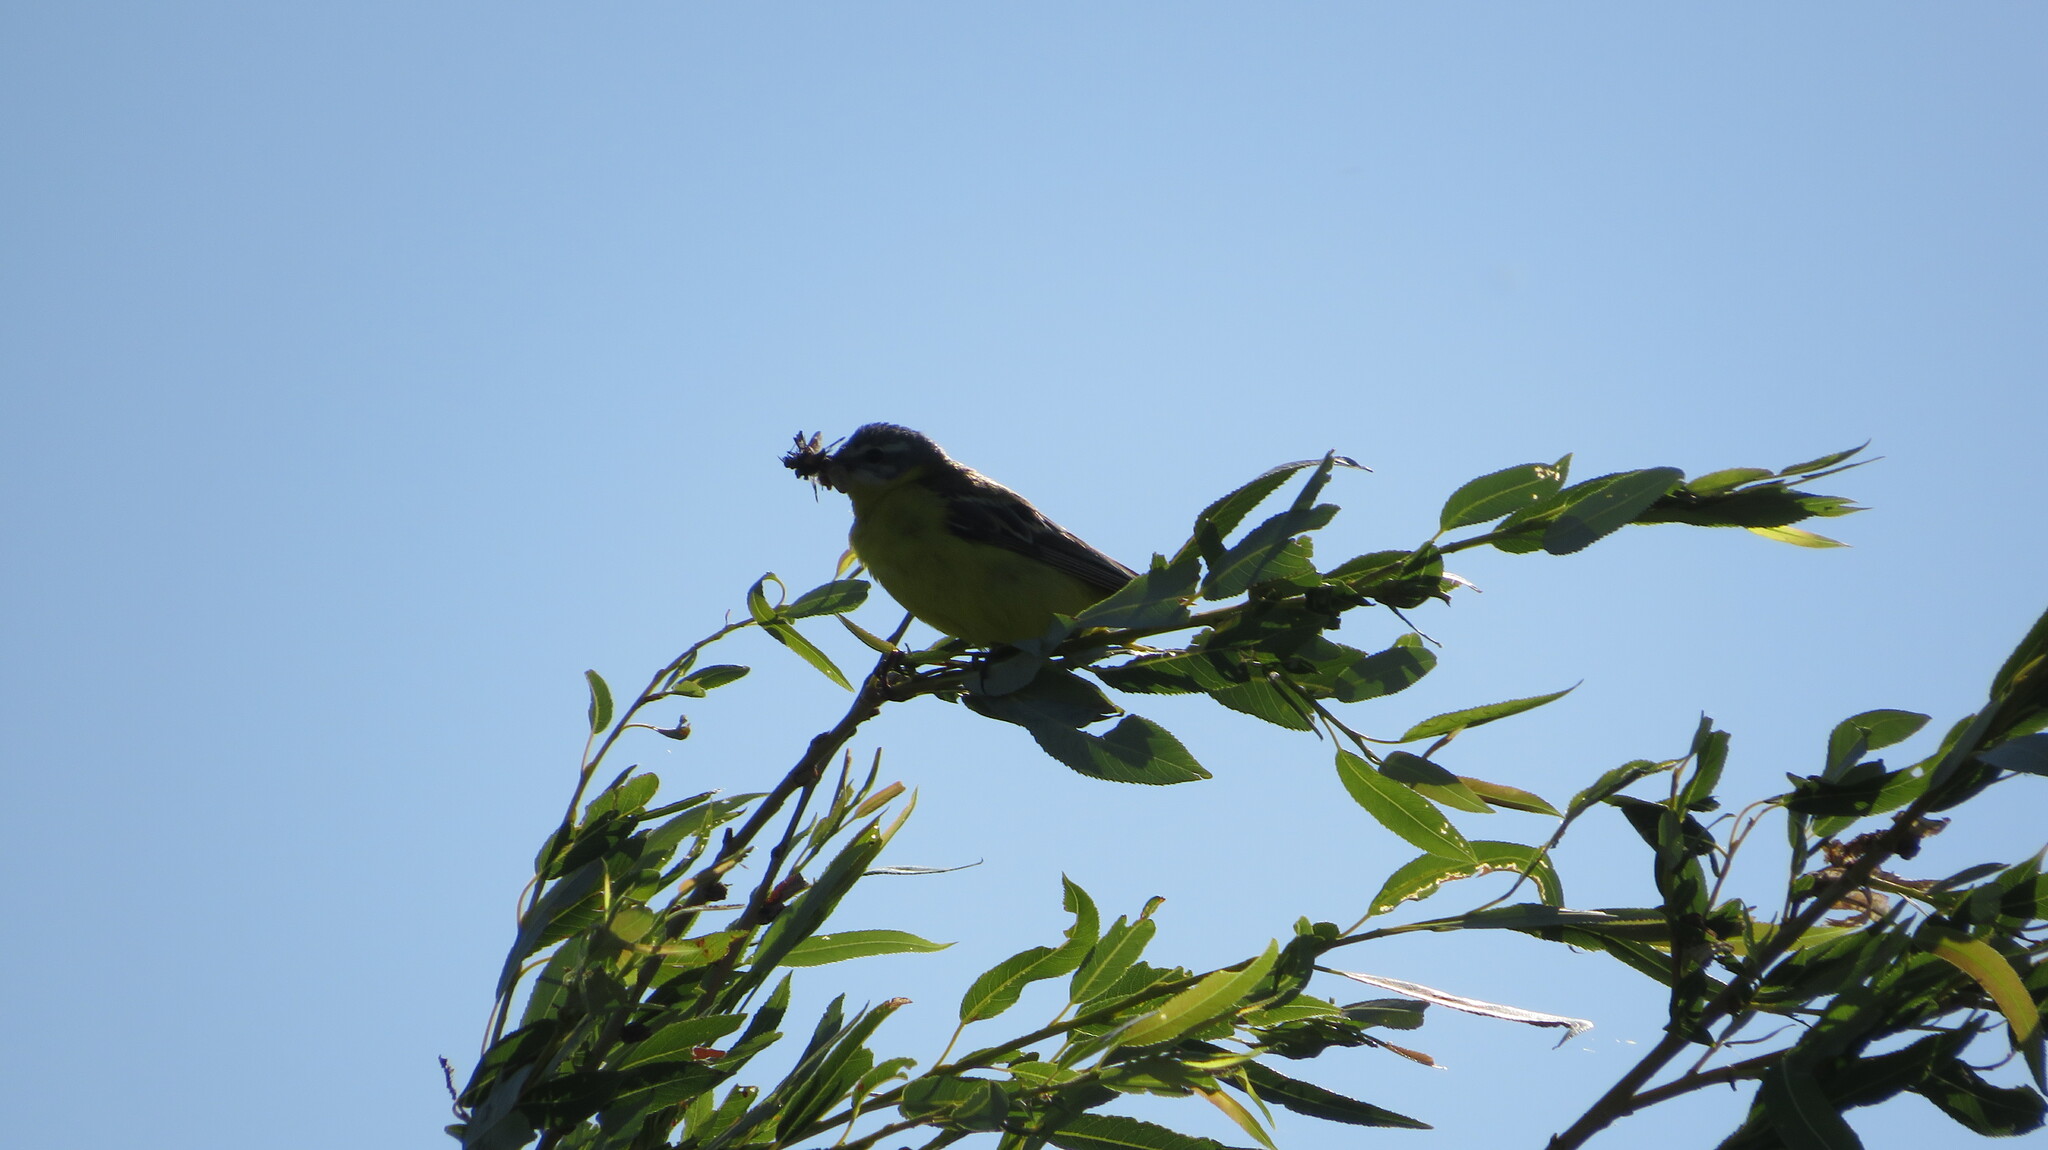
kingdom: Animalia
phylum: Chordata
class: Aves
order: Passeriformes
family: Motacillidae
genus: Motacilla
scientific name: Motacilla flava
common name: Western yellow wagtail
